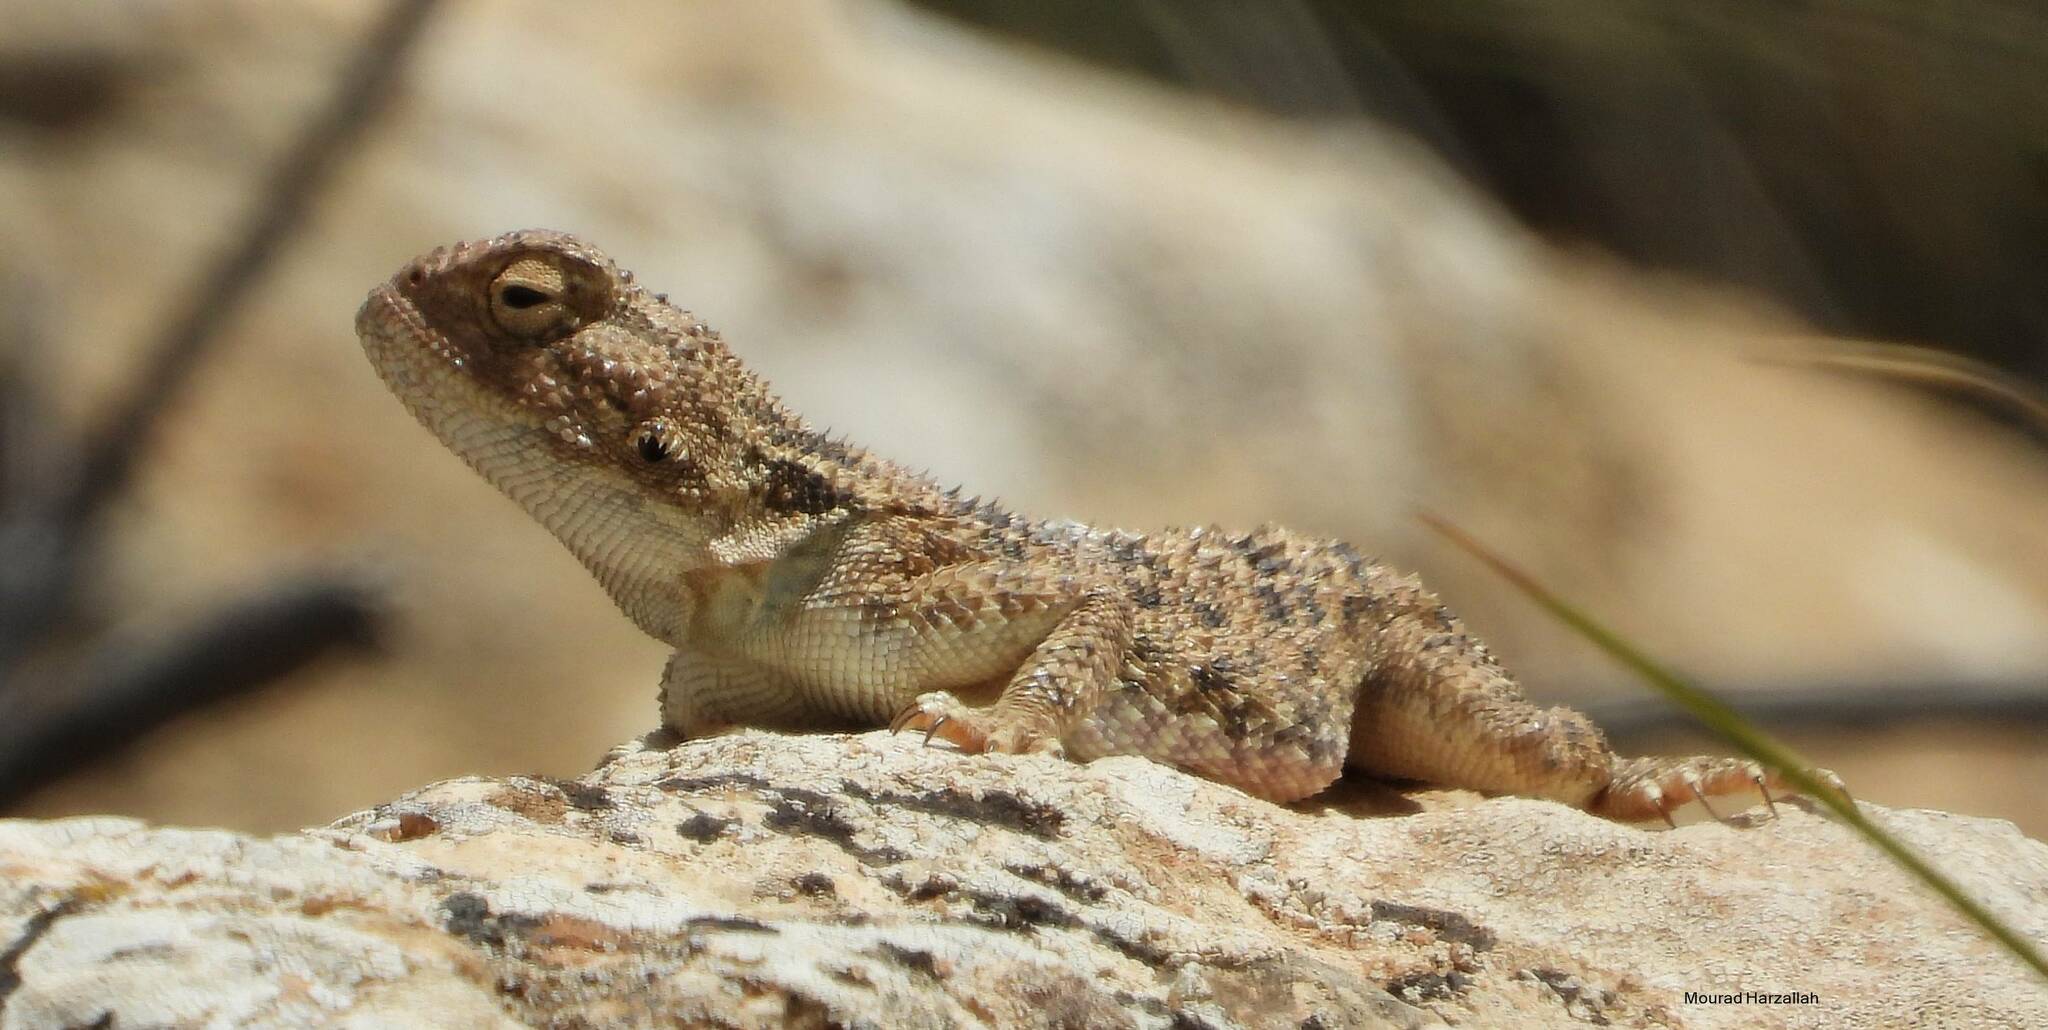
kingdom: Animalia
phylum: Chordata
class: Squamata
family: Agamidae
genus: Trapelus
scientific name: Trapelus mutabilis
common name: Desert agama
